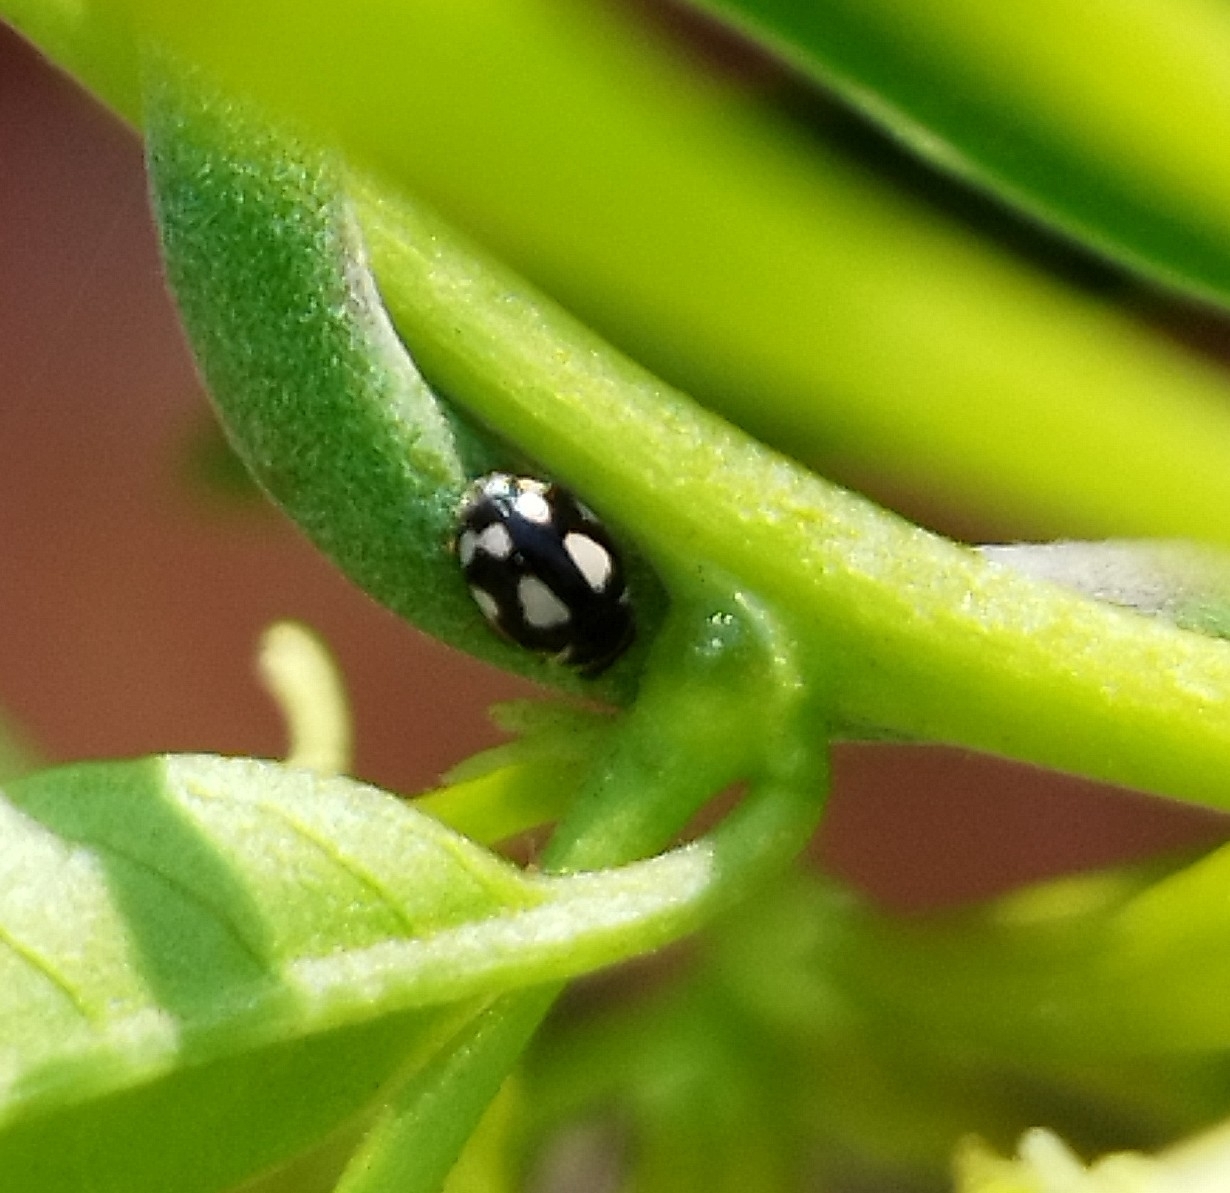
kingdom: Animalia
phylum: Arthropoda
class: Insecta
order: Coleoptera
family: Coccinellidae
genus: Hyperaspis
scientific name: Hyperaspis festiva
